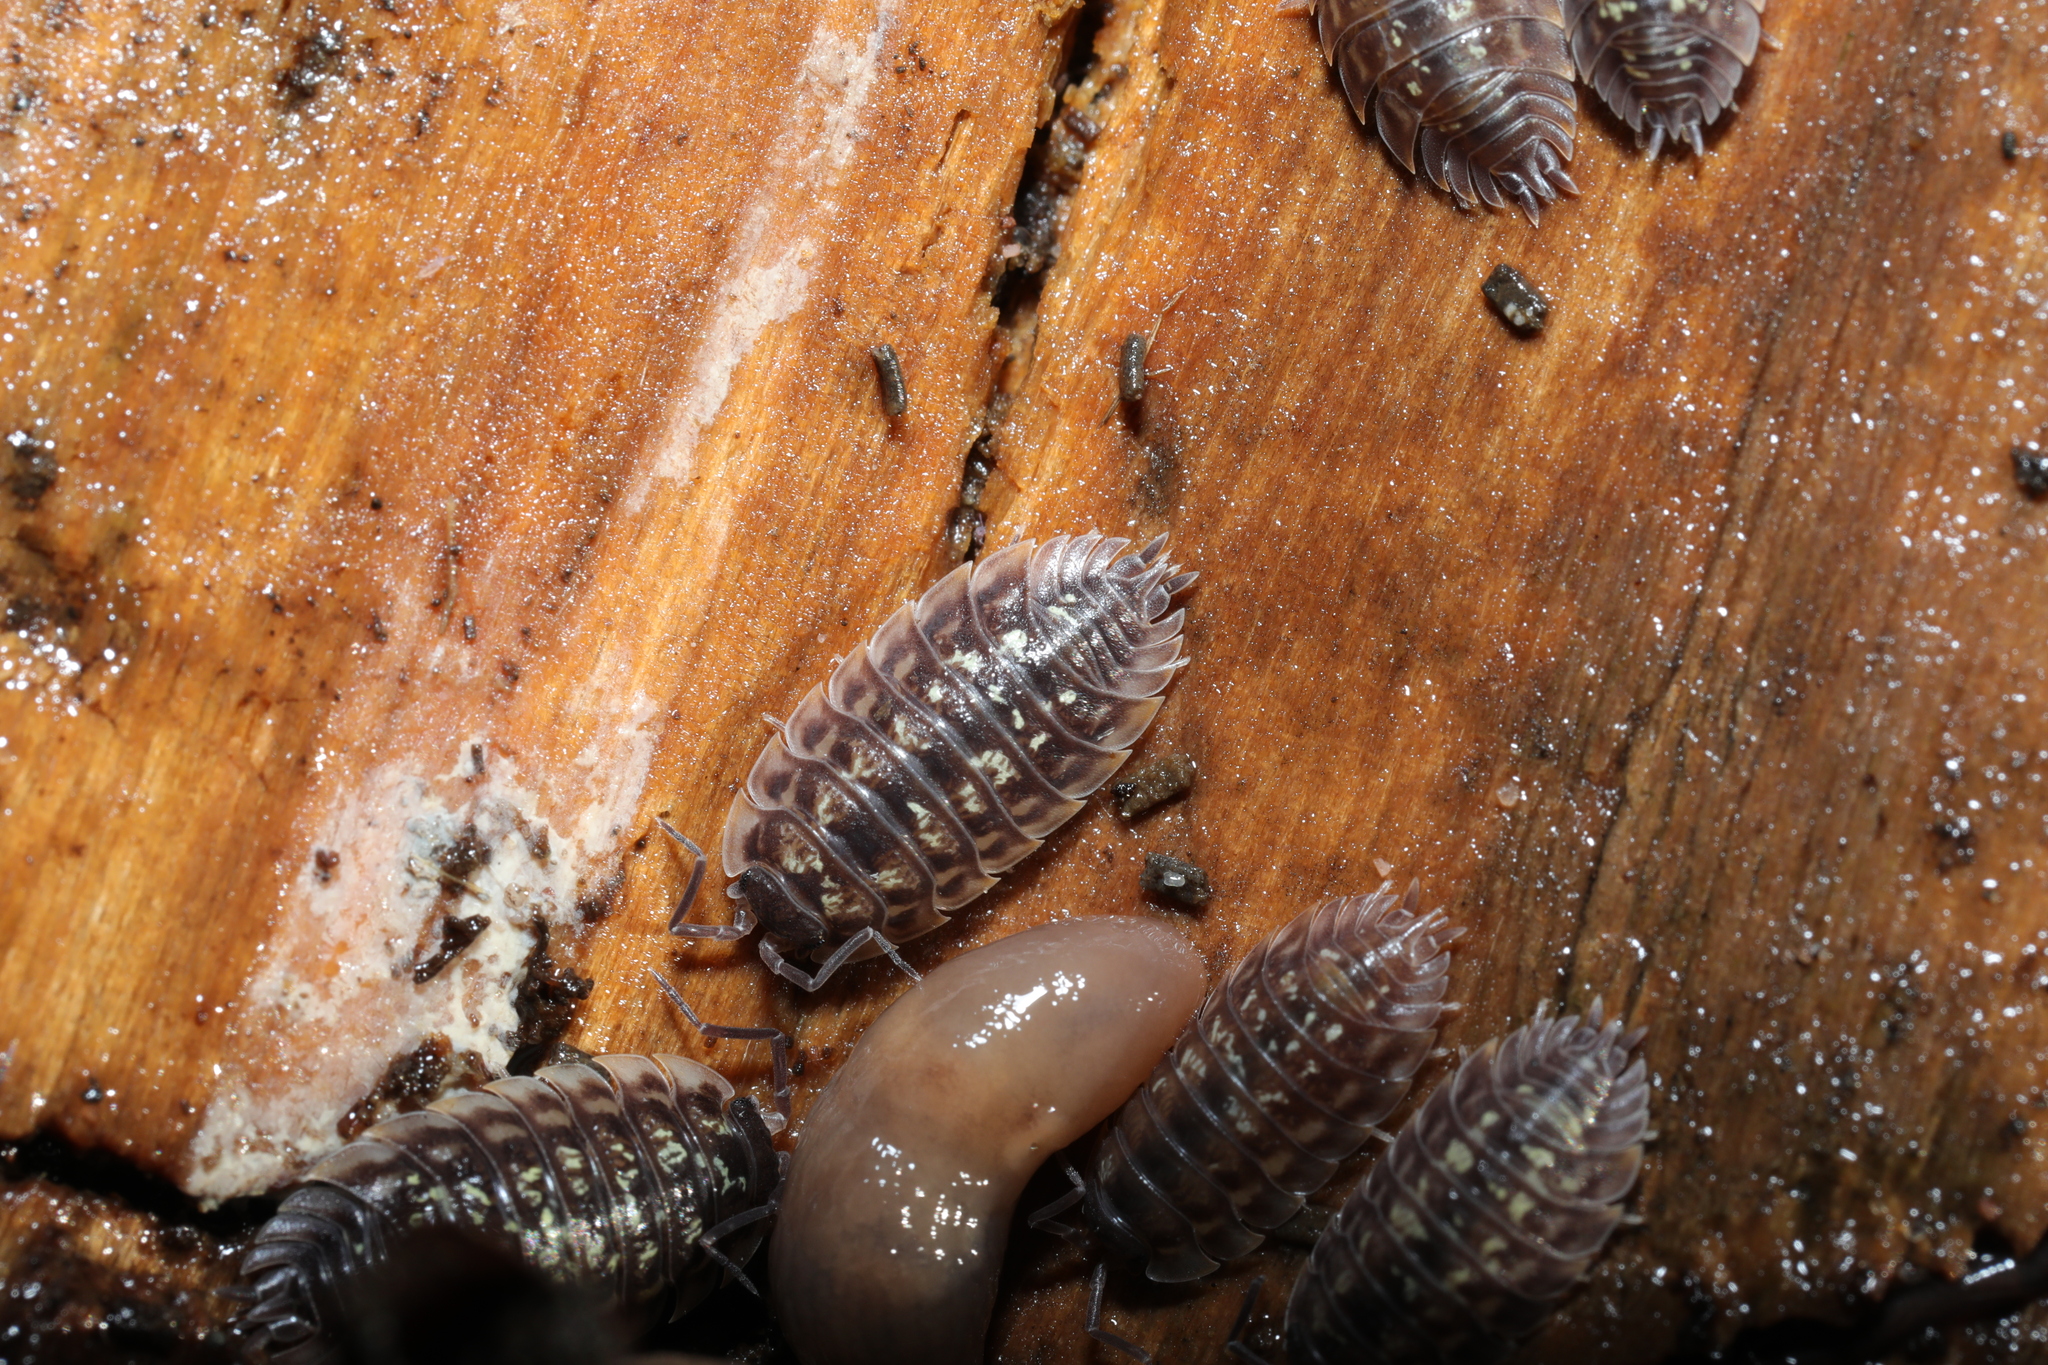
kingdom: Animalia
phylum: Arthropoda
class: Malacostraca
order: Isopoda
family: Oniscidae
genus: Oniscus
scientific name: Oniscus asellus
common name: Common shiny woodlouse
